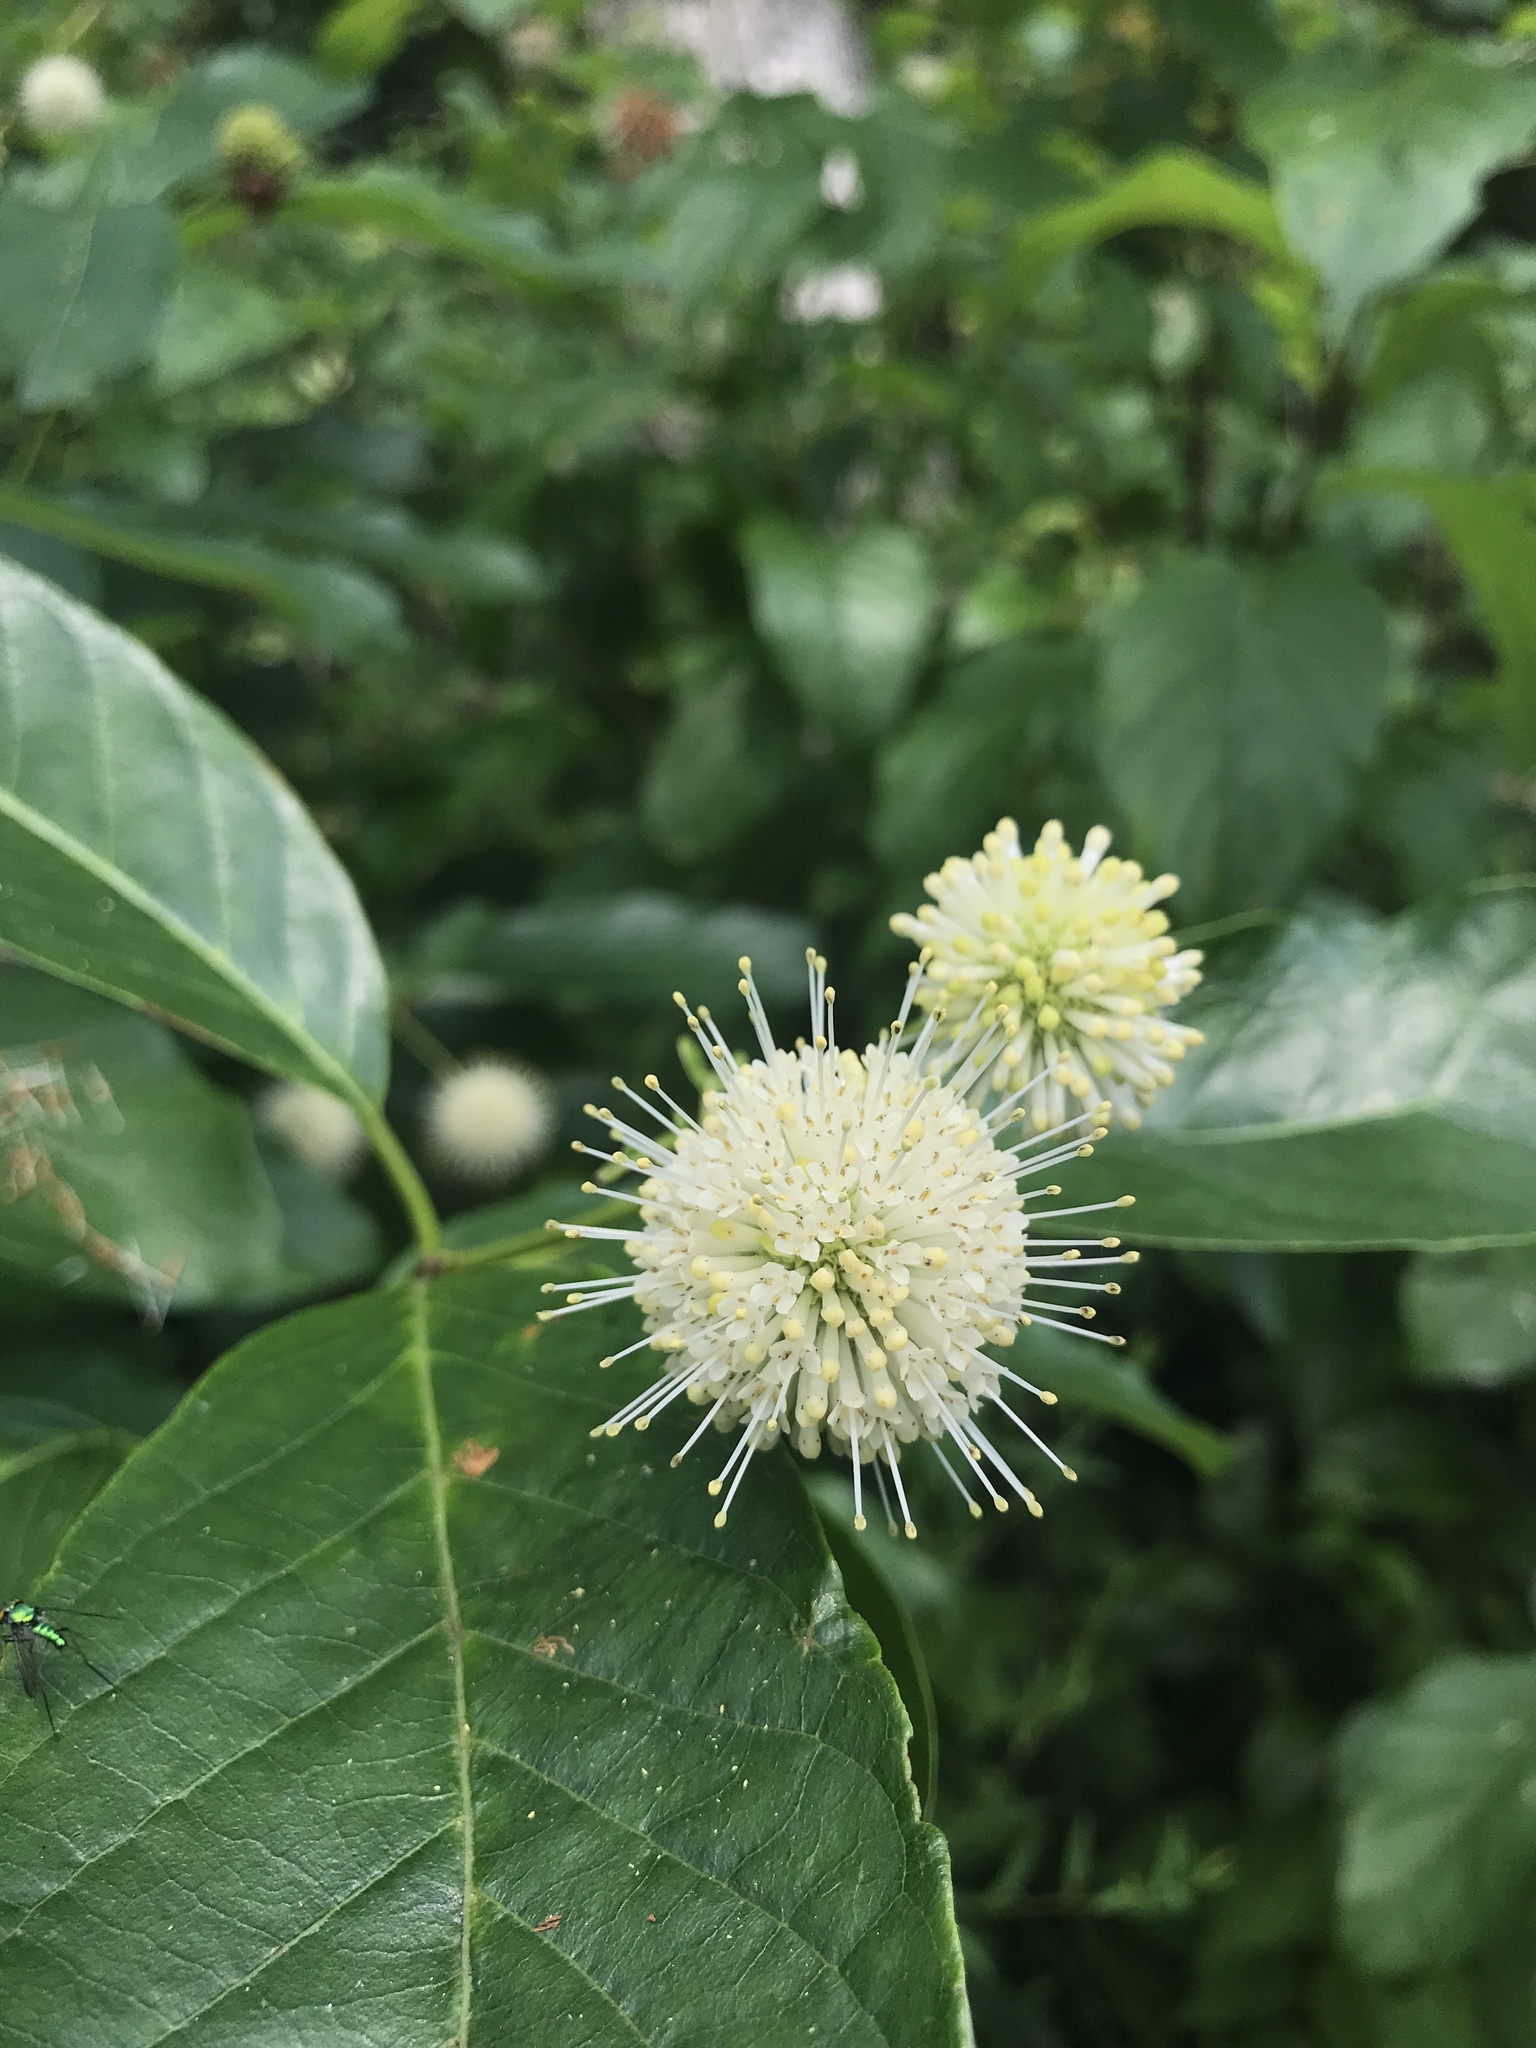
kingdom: Plantae
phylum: Tracheophyta
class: Magnoliopsida
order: Gentianales
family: Rubiaceae
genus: Cephalanthus
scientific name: Cephalanthus occidentalis
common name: Button-willow
